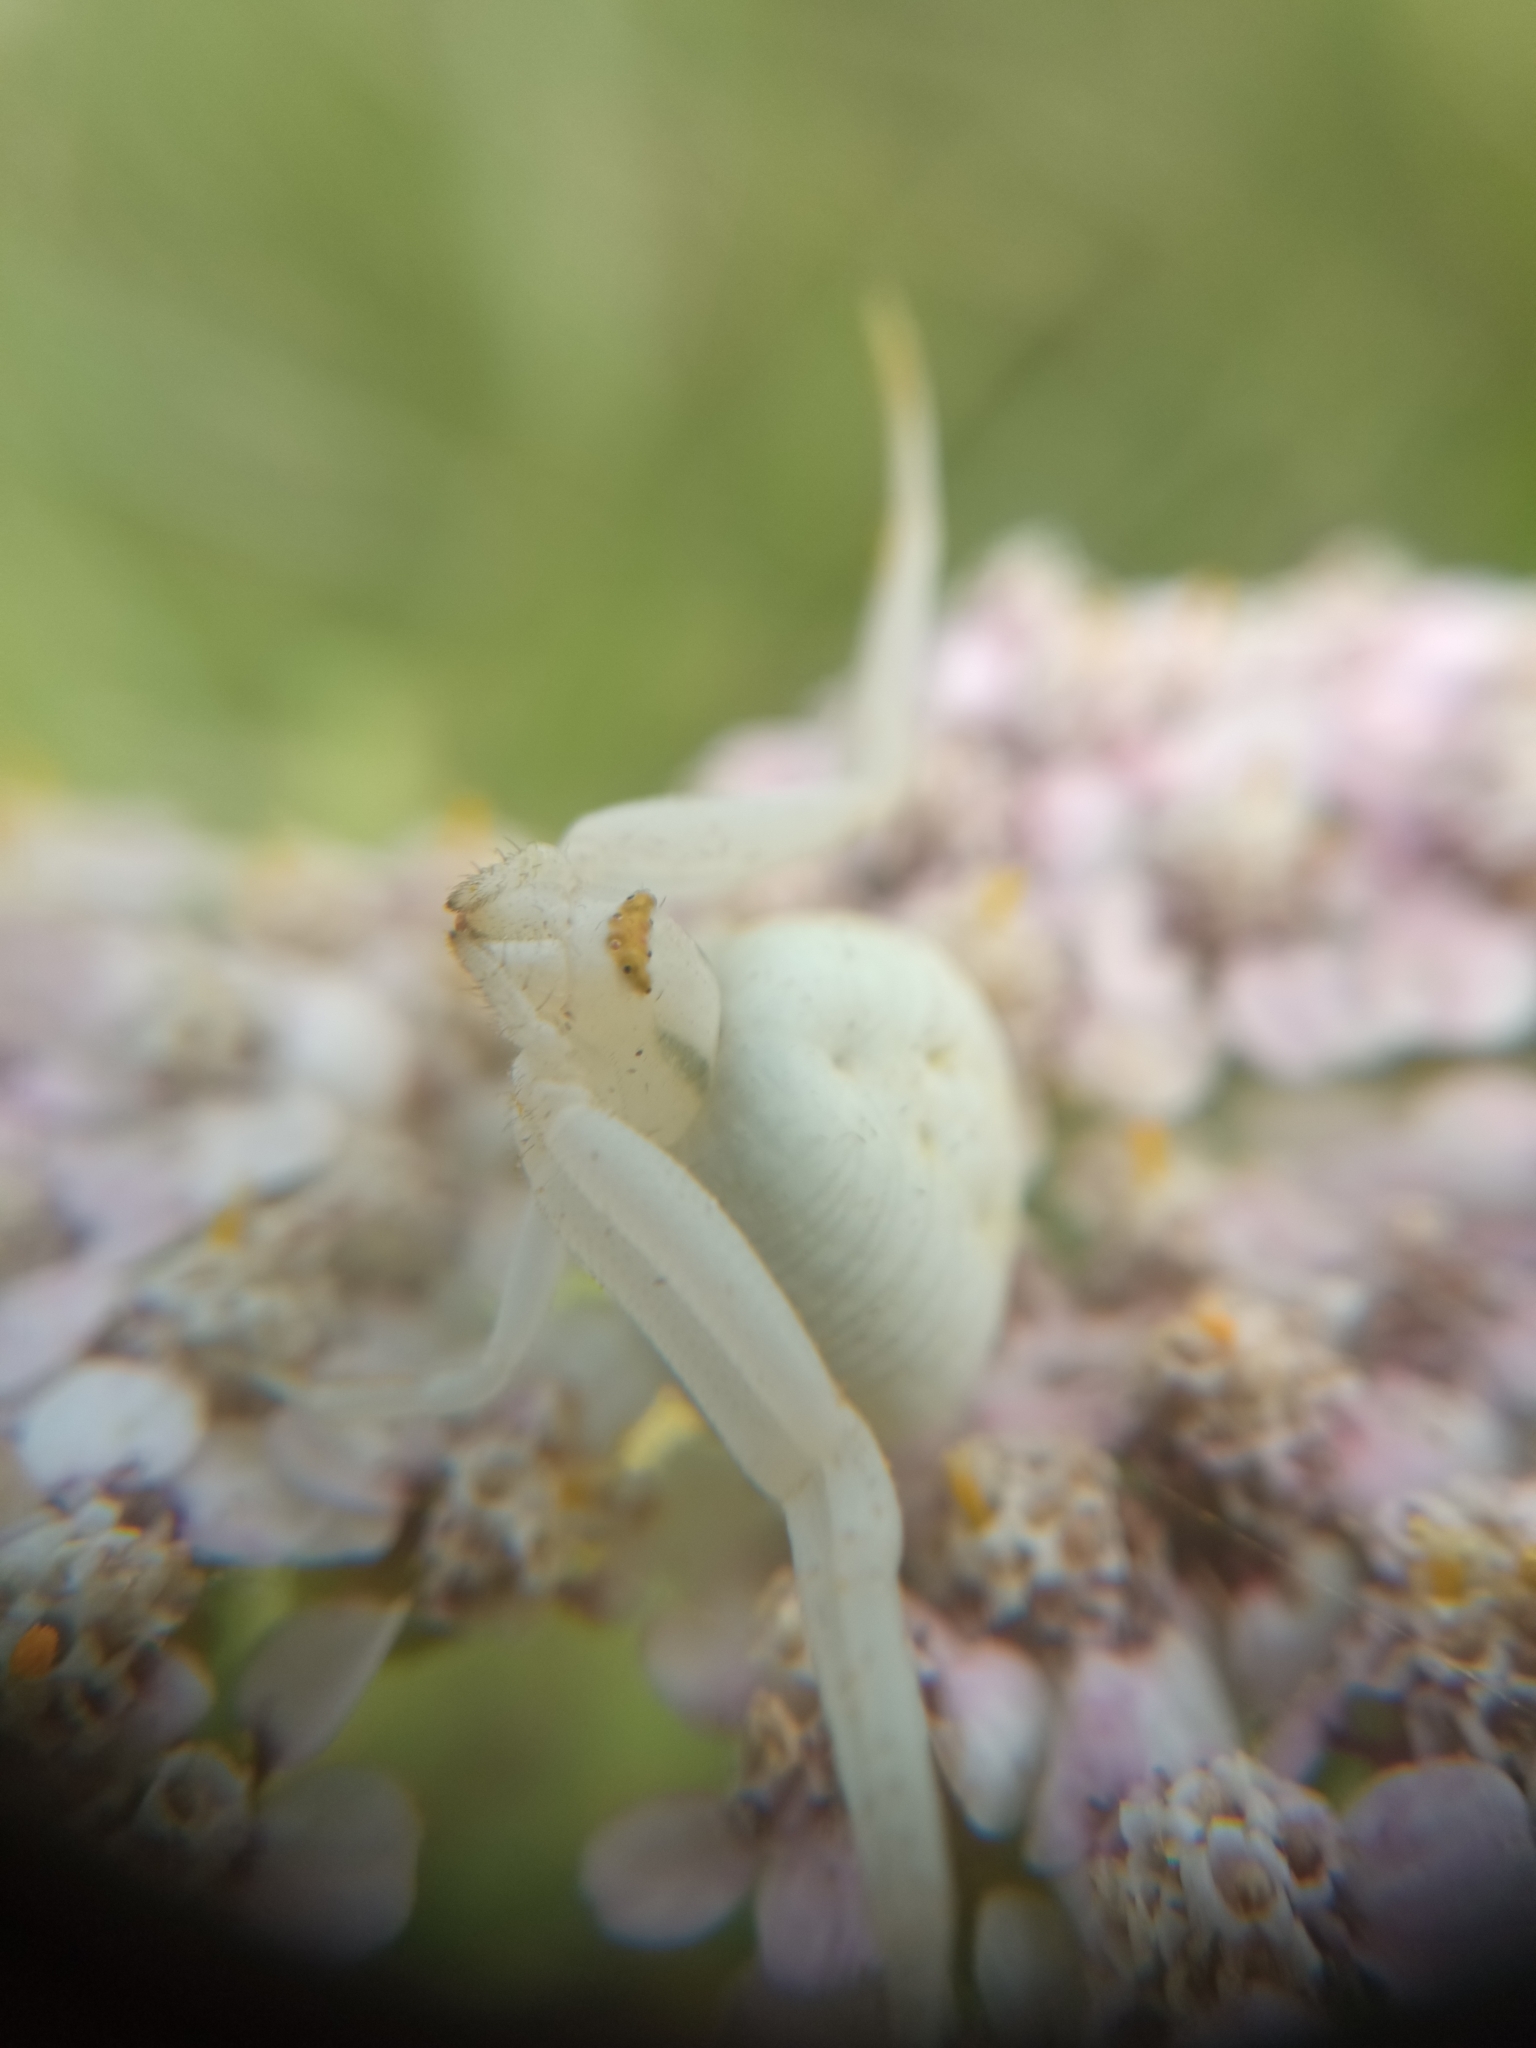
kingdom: Animalia
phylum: Arthropoda
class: Arachnida
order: Araneae
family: Thomisidae
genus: Misumena
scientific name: Misumena vatia
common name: Goldenrod crab spider
